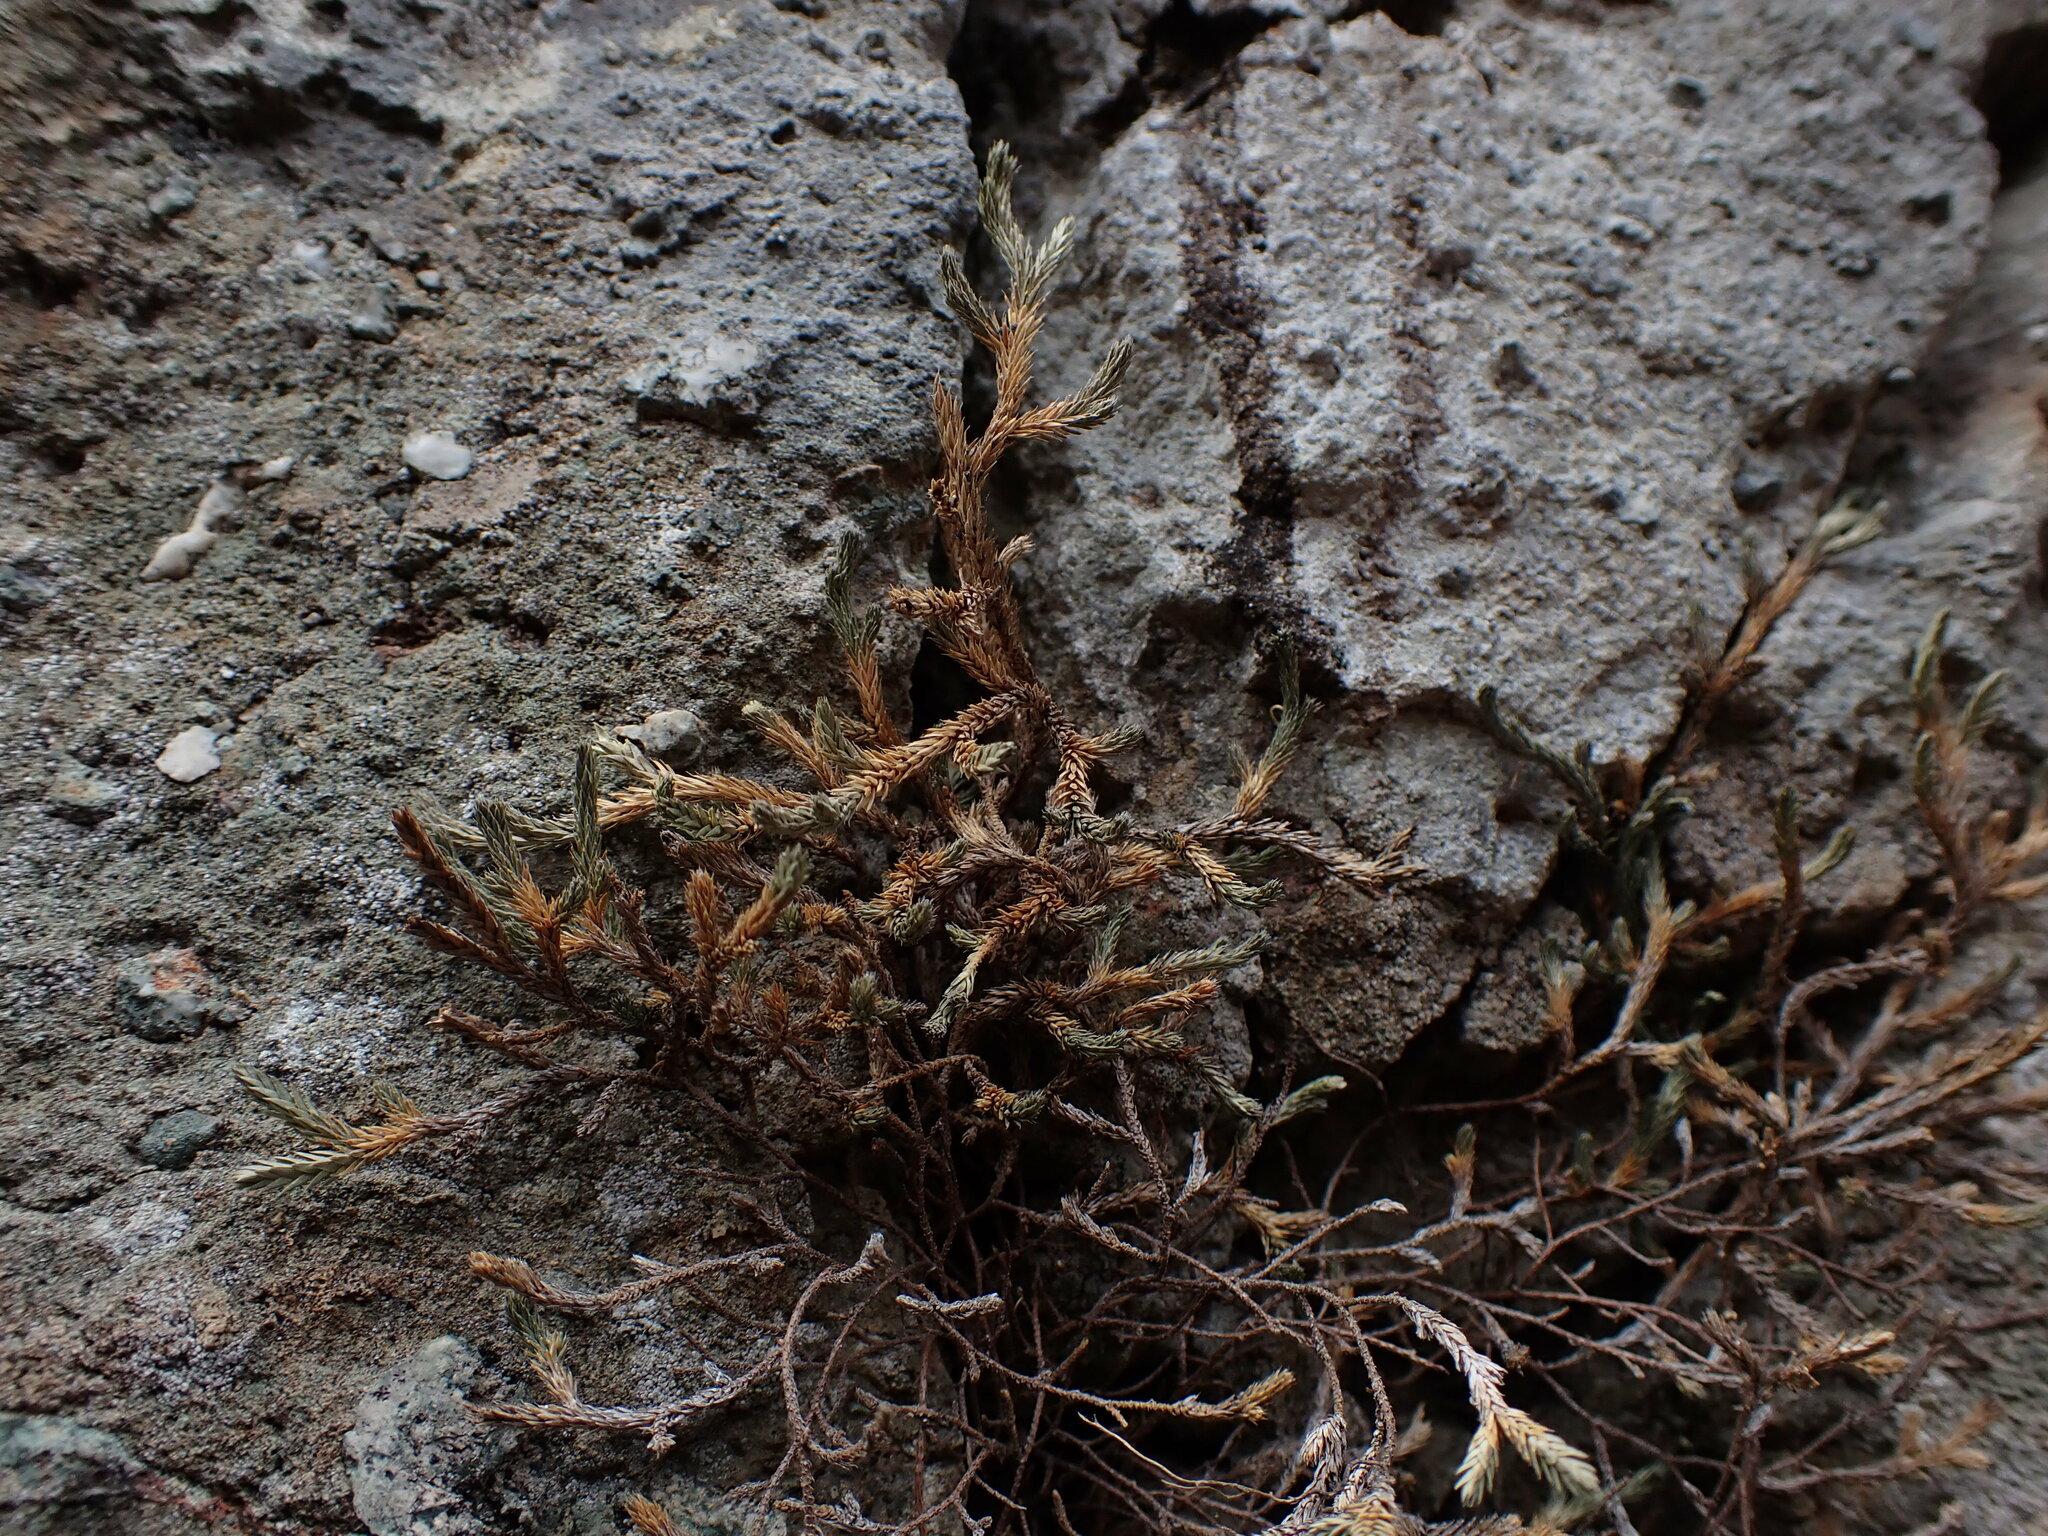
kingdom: Plantae
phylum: Tracheophyta
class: Lycopodiopsida
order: Selaginellales
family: Selaginellaceae
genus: Selaginella
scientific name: Selaginella wallacei
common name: Wallace's selaginella
